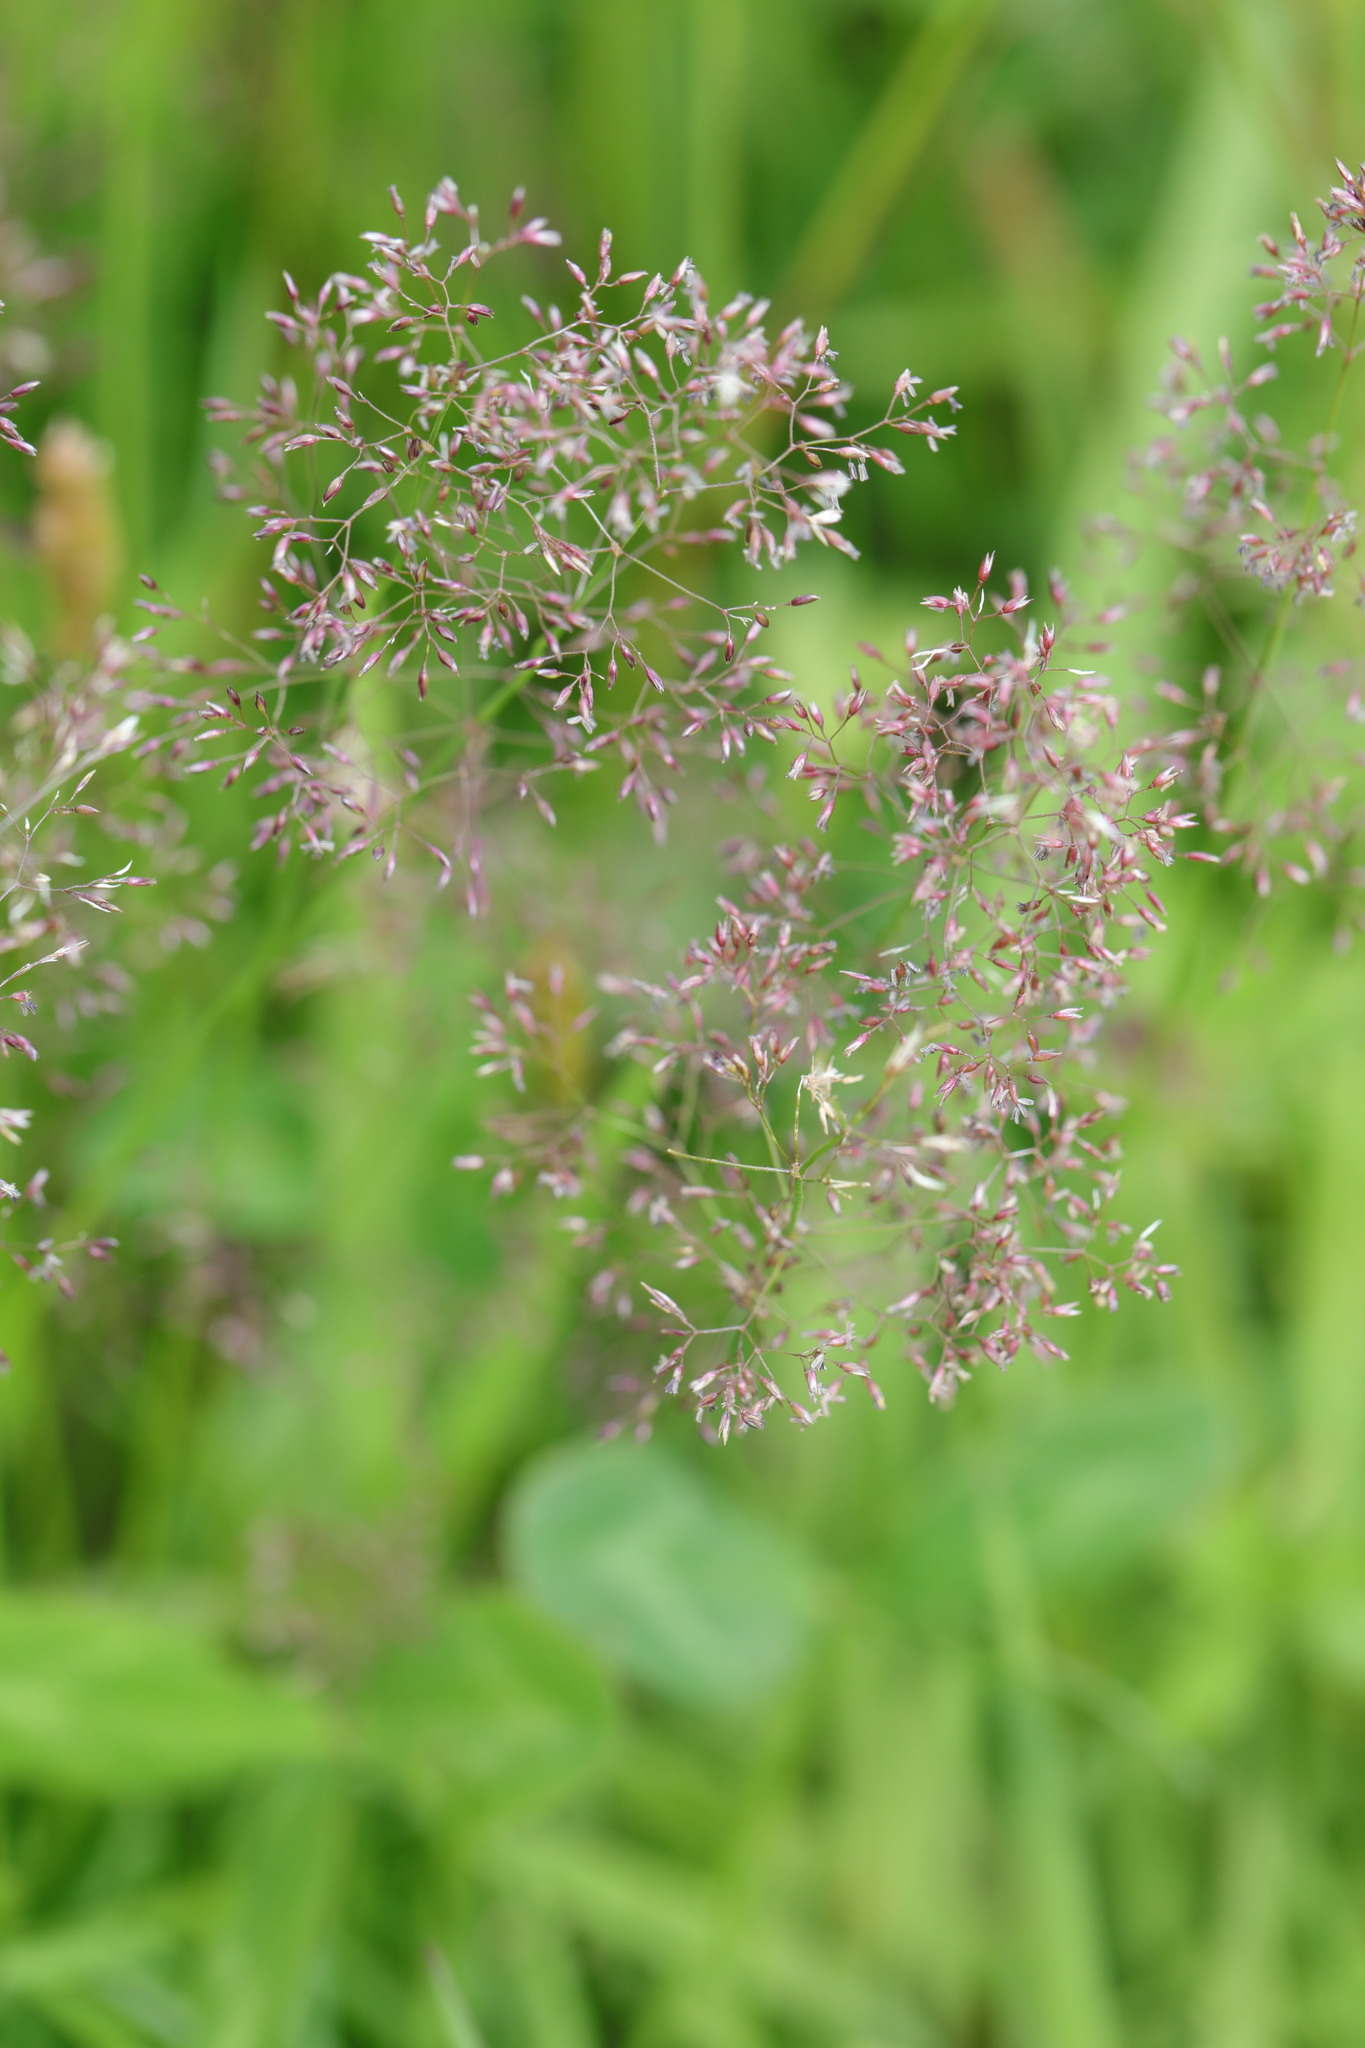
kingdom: Plantae
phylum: Tracheophyta
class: Liliopsida
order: Poales
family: Poaceae
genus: Agrostis
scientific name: Agrostis capillaris
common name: Colonial bentgrass
